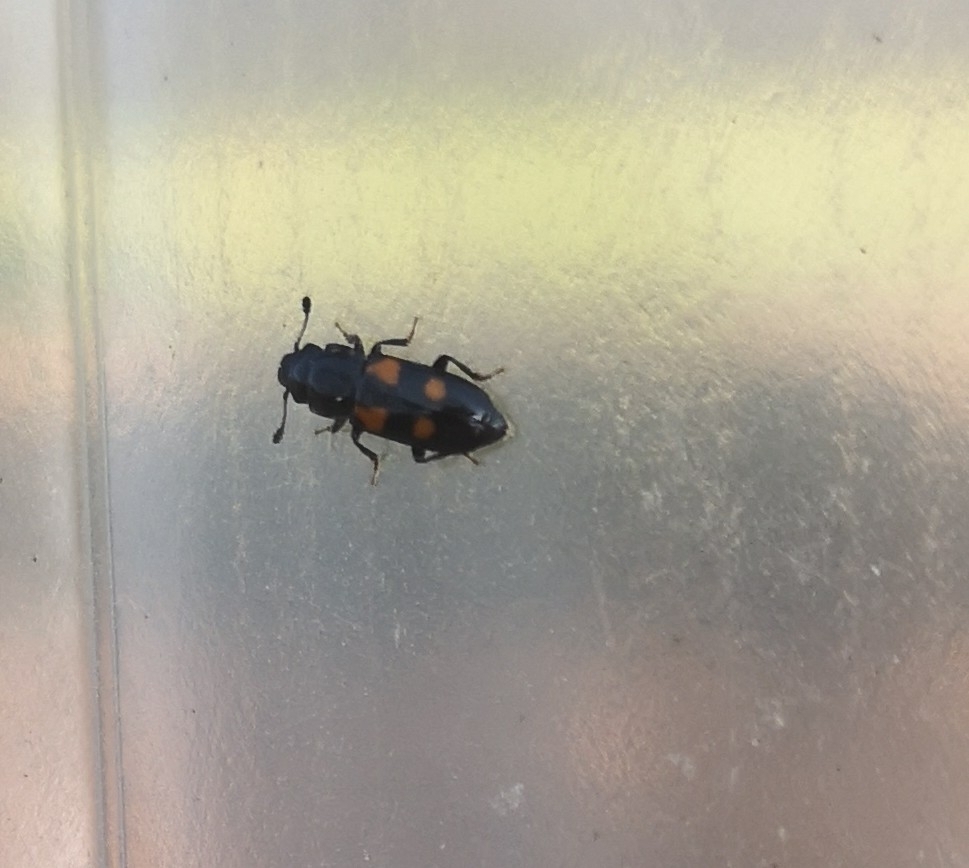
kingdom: Animalia
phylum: Arthropoda
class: Insecta
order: Coleoptera
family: Nitidulidae
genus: Glischrochilus
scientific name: Glischrochilus quadripunctatus
